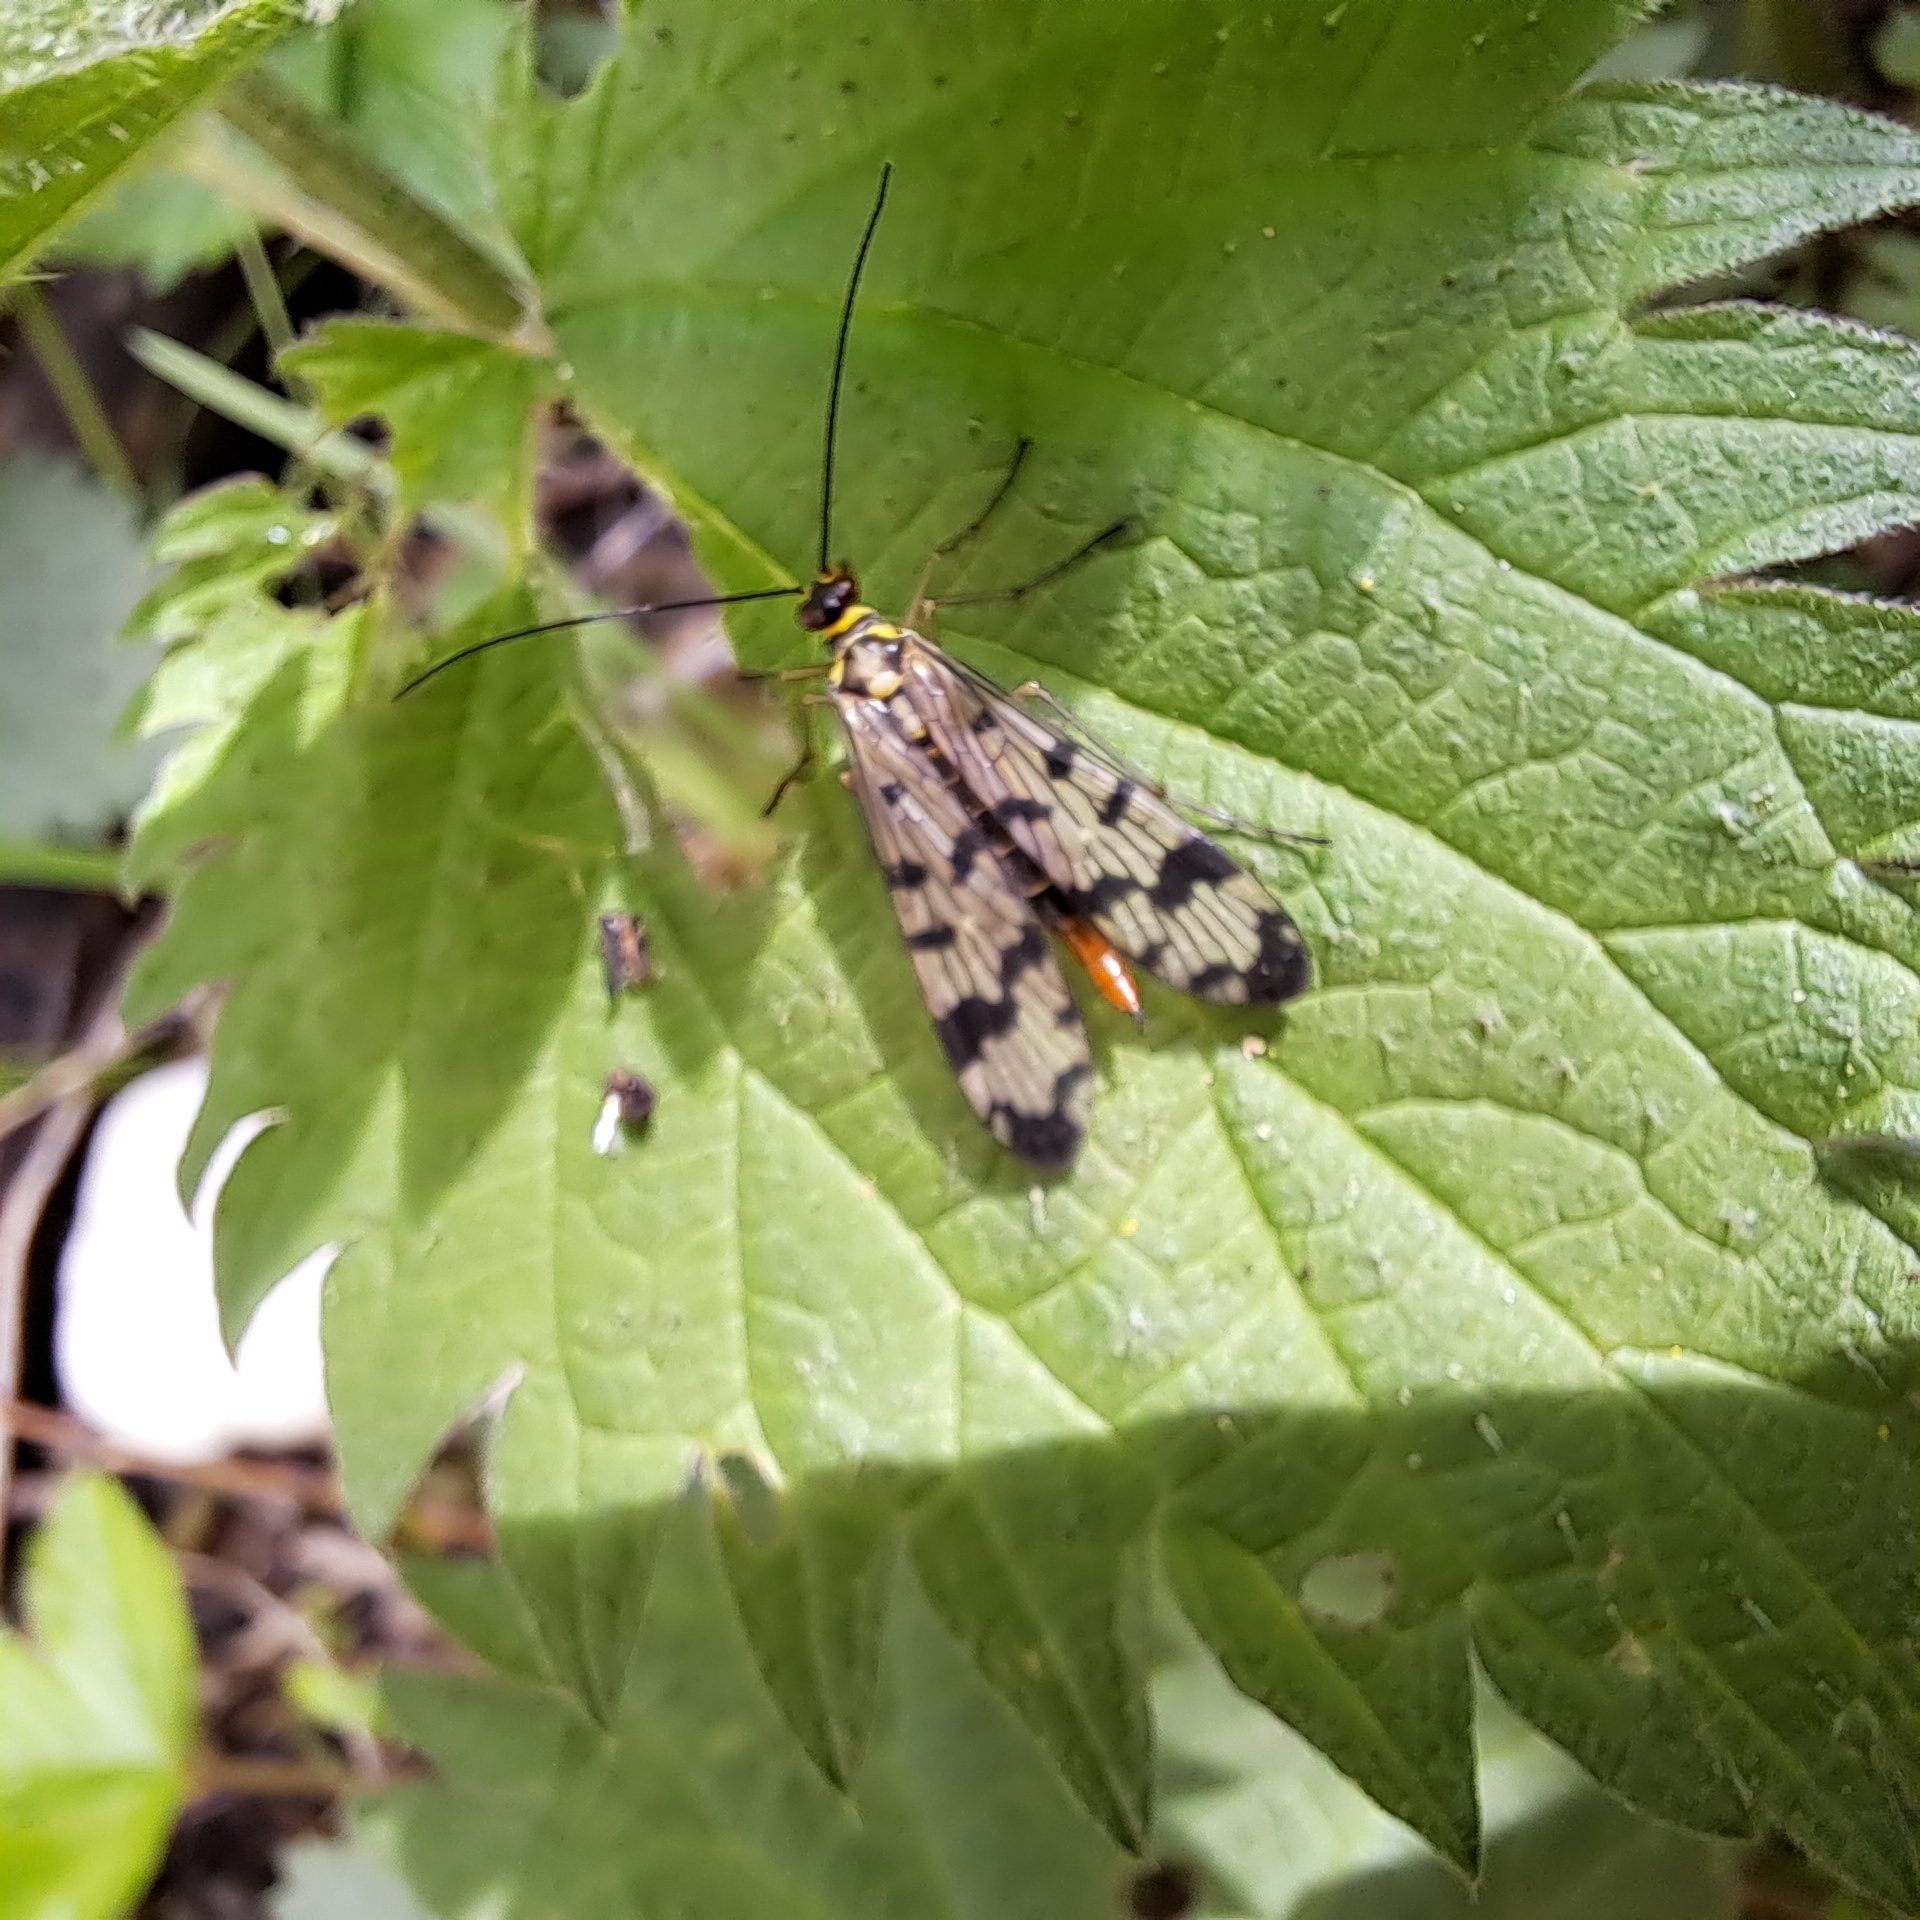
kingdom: Animalia
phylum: Arthropoda
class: Insecta
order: Mecoptera
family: Panorpidae
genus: Panorpa
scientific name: Panorpa communis
